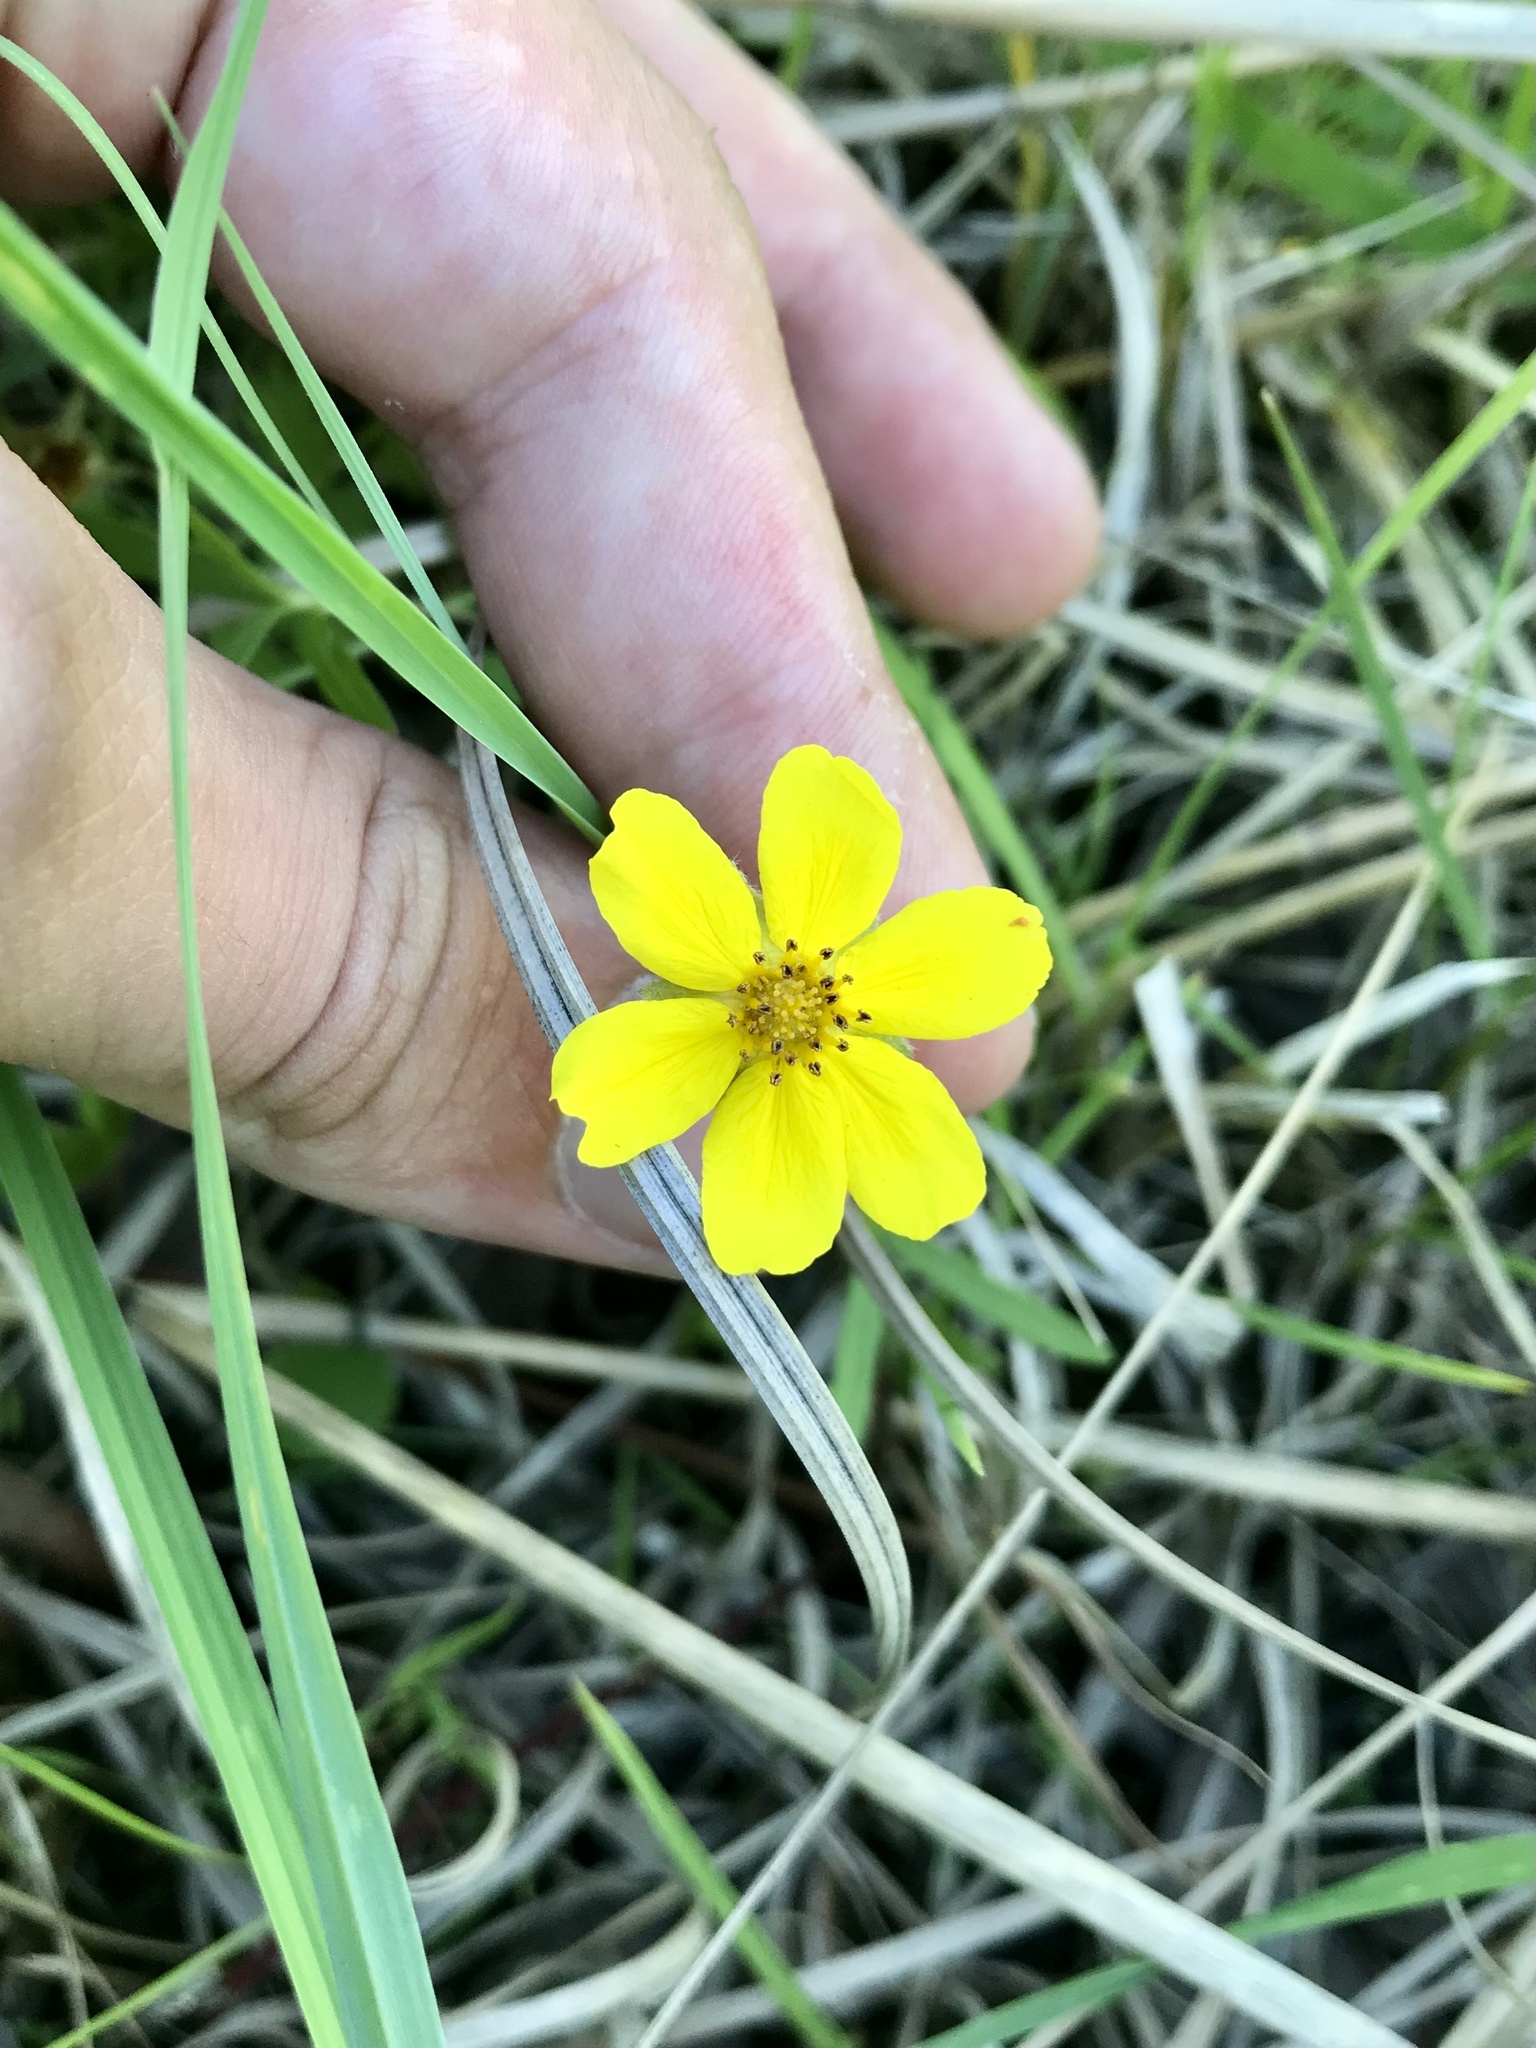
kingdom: Plantae
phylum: Tracheophyta
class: Magnoliopsida
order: Rosales
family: Rosaceae
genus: Argentina
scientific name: Argentina anserina
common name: Common silverweed
